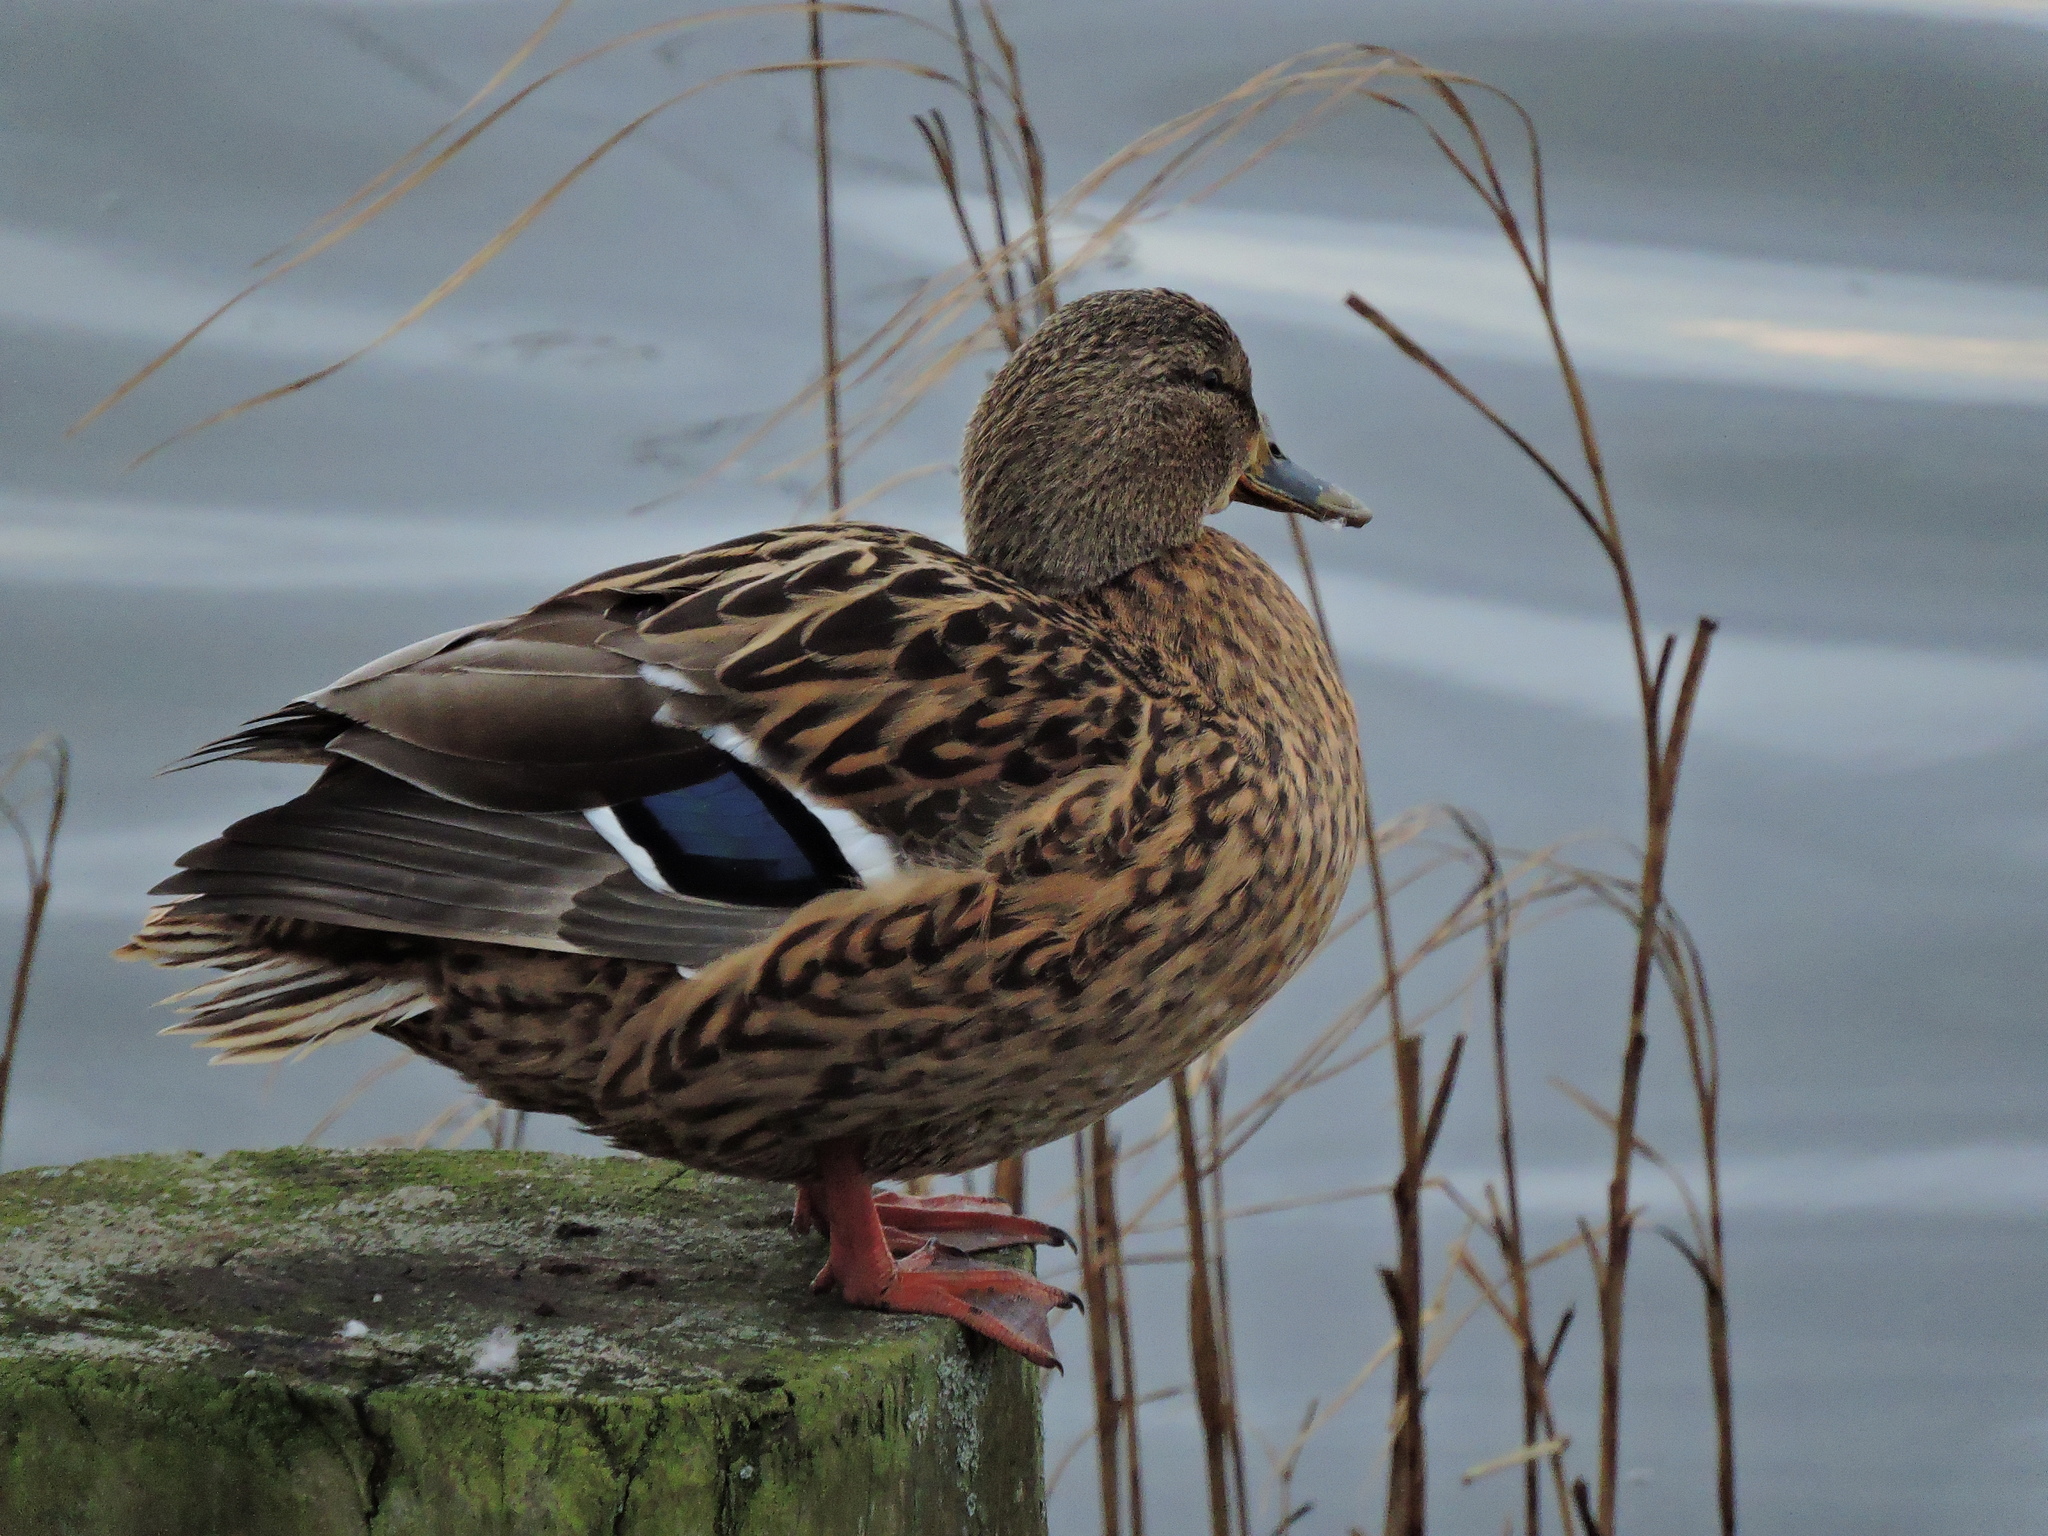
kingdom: Animalia
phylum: Chordata
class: Aves
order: Anseriformes
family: Anatidae
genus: Anas
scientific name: Anas platyrhynchos
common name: Mallard
